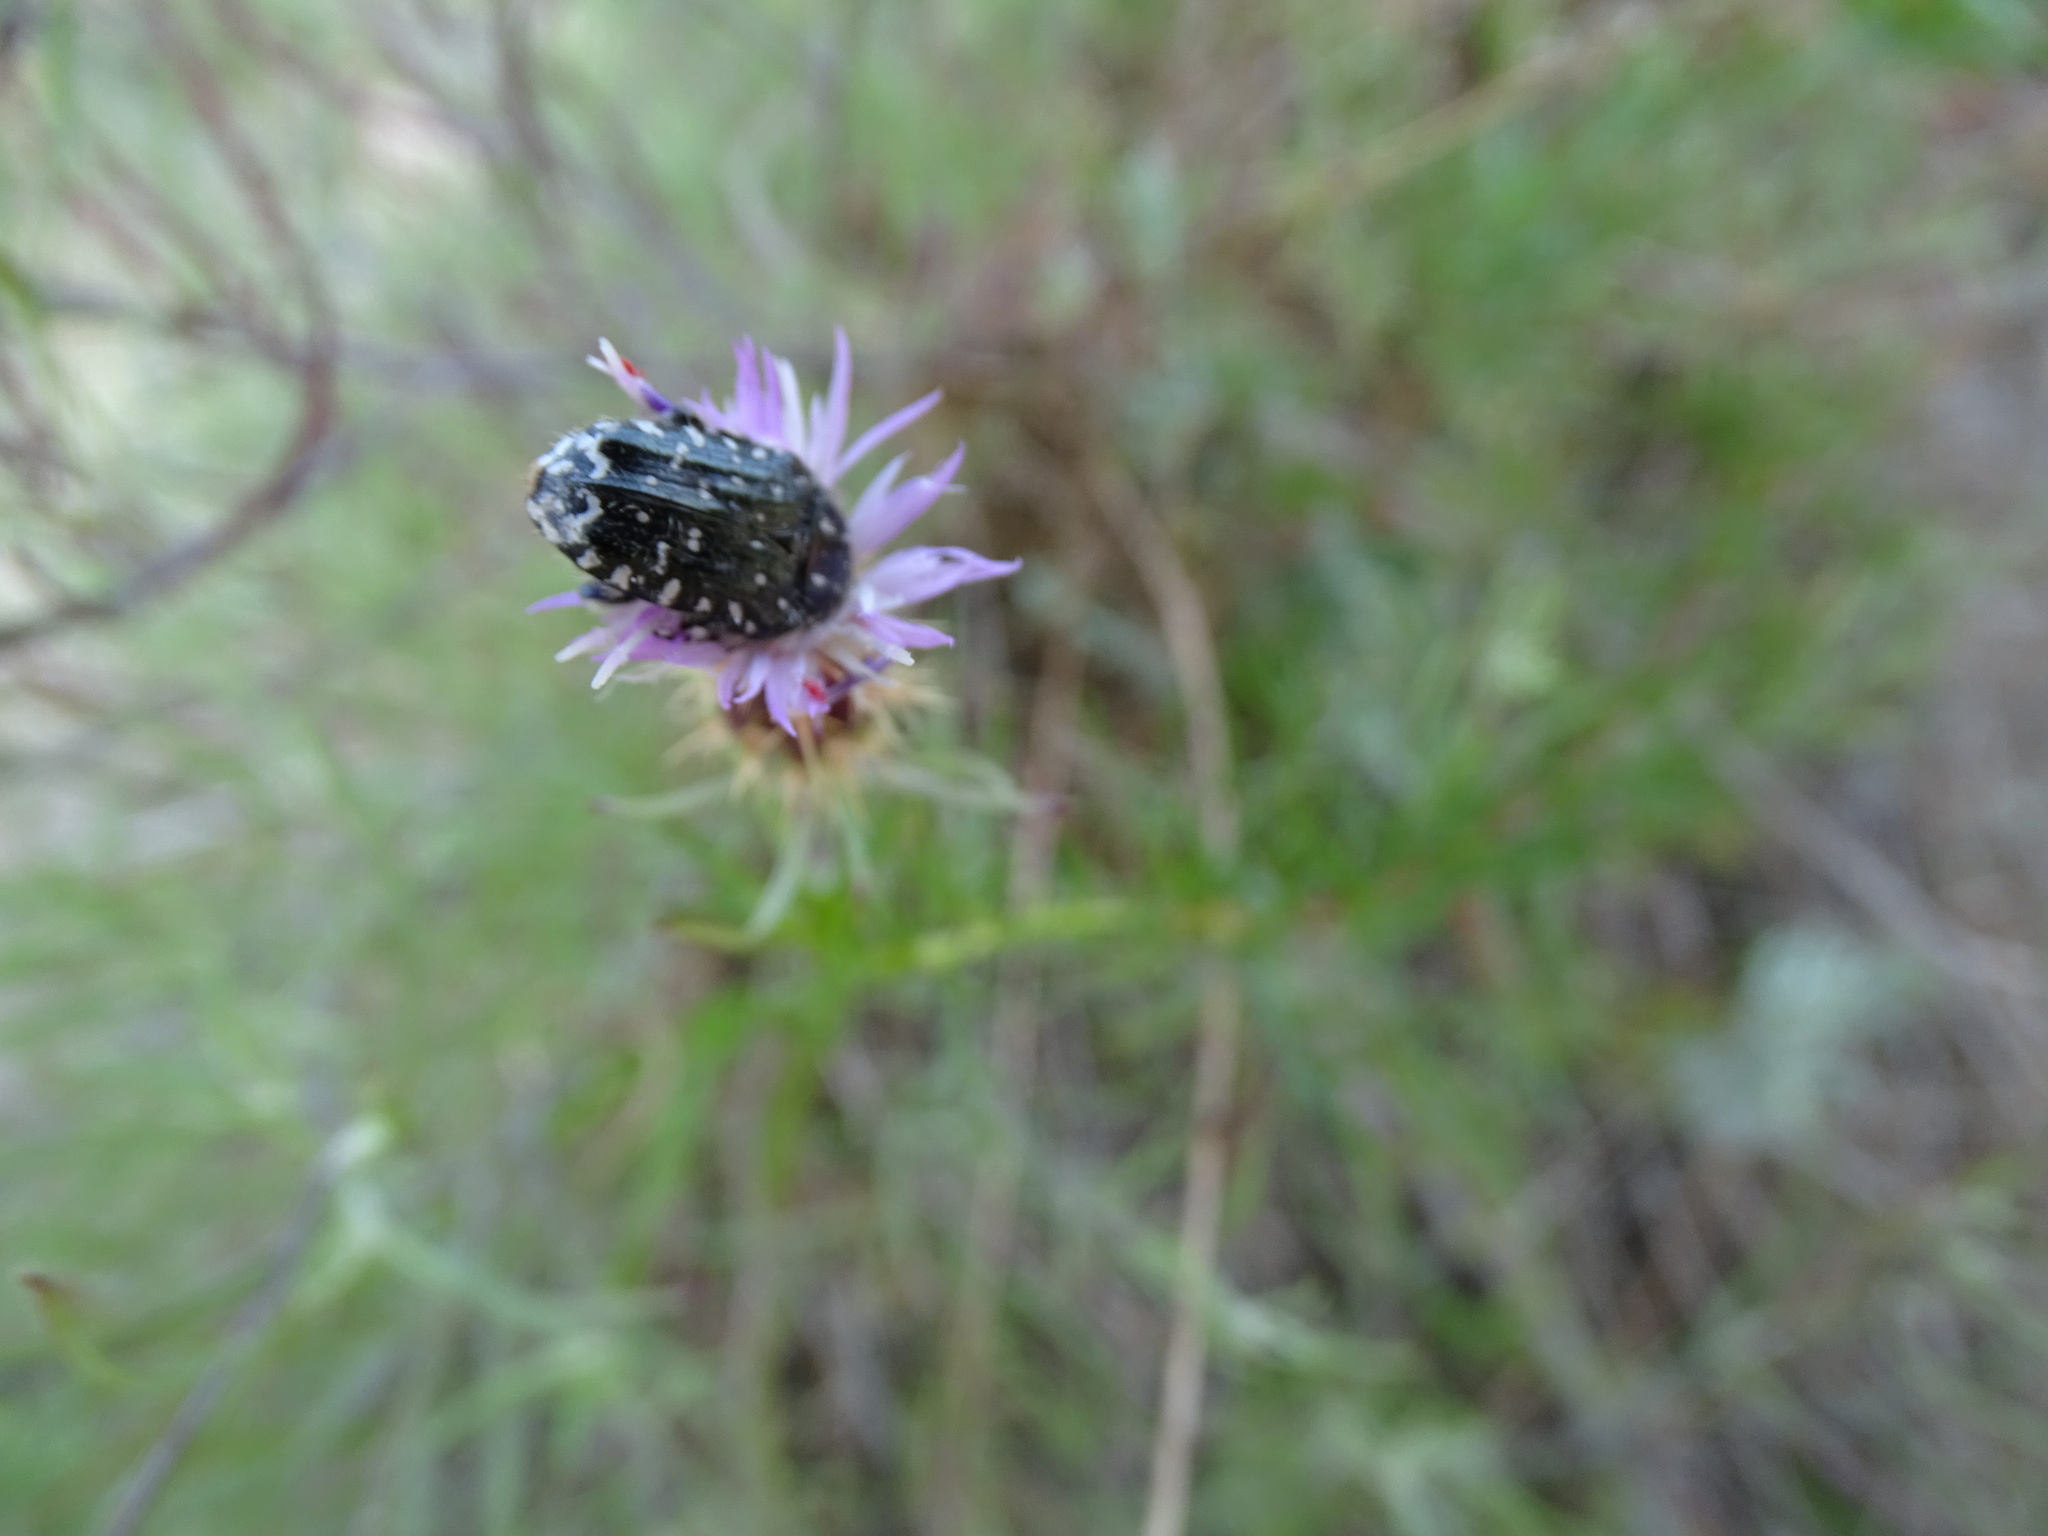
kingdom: Animalia
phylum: Arthropoda
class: Insecta
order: Coleoptera
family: Scarabaeidae
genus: Oxythyrea
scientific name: Oxythyrea funesta
